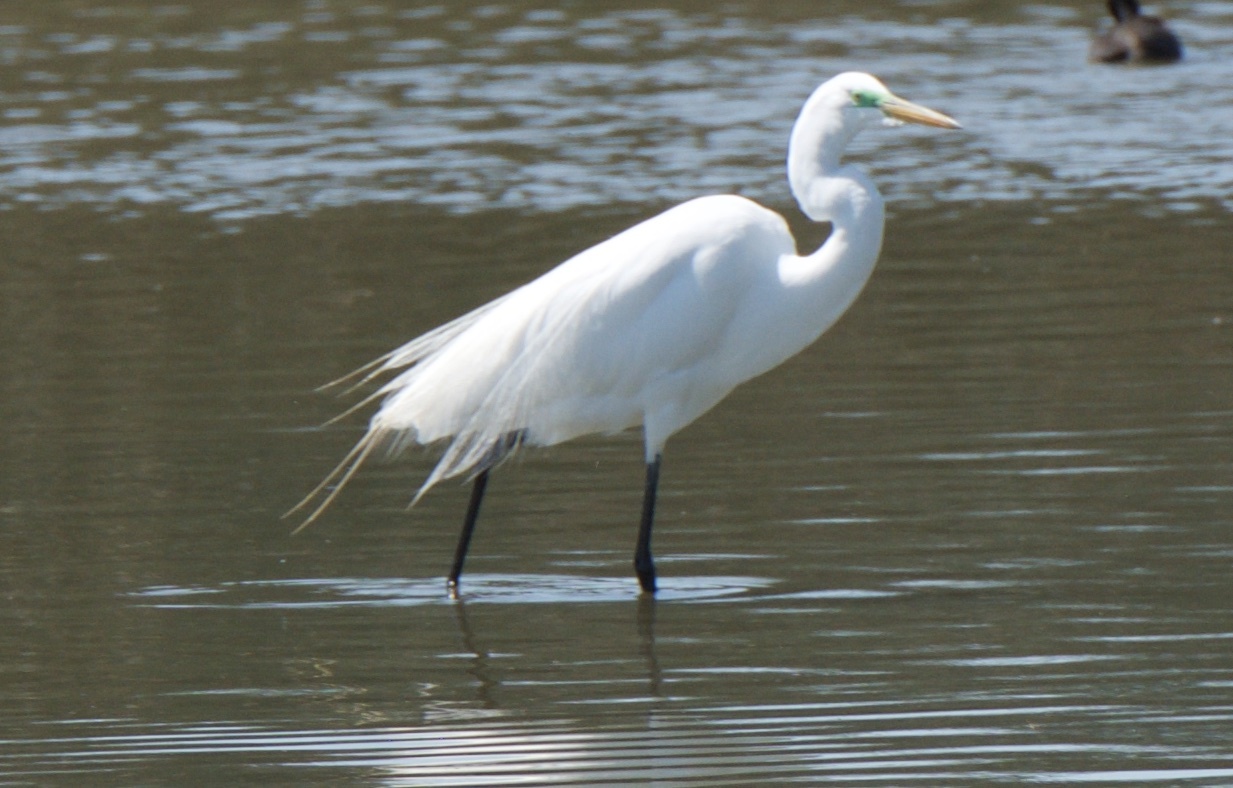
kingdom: Animalia
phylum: Chordata
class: Aves
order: Pelecaniformes
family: Ardeidae
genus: Ardea
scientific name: Ardea alba
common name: Great egret
